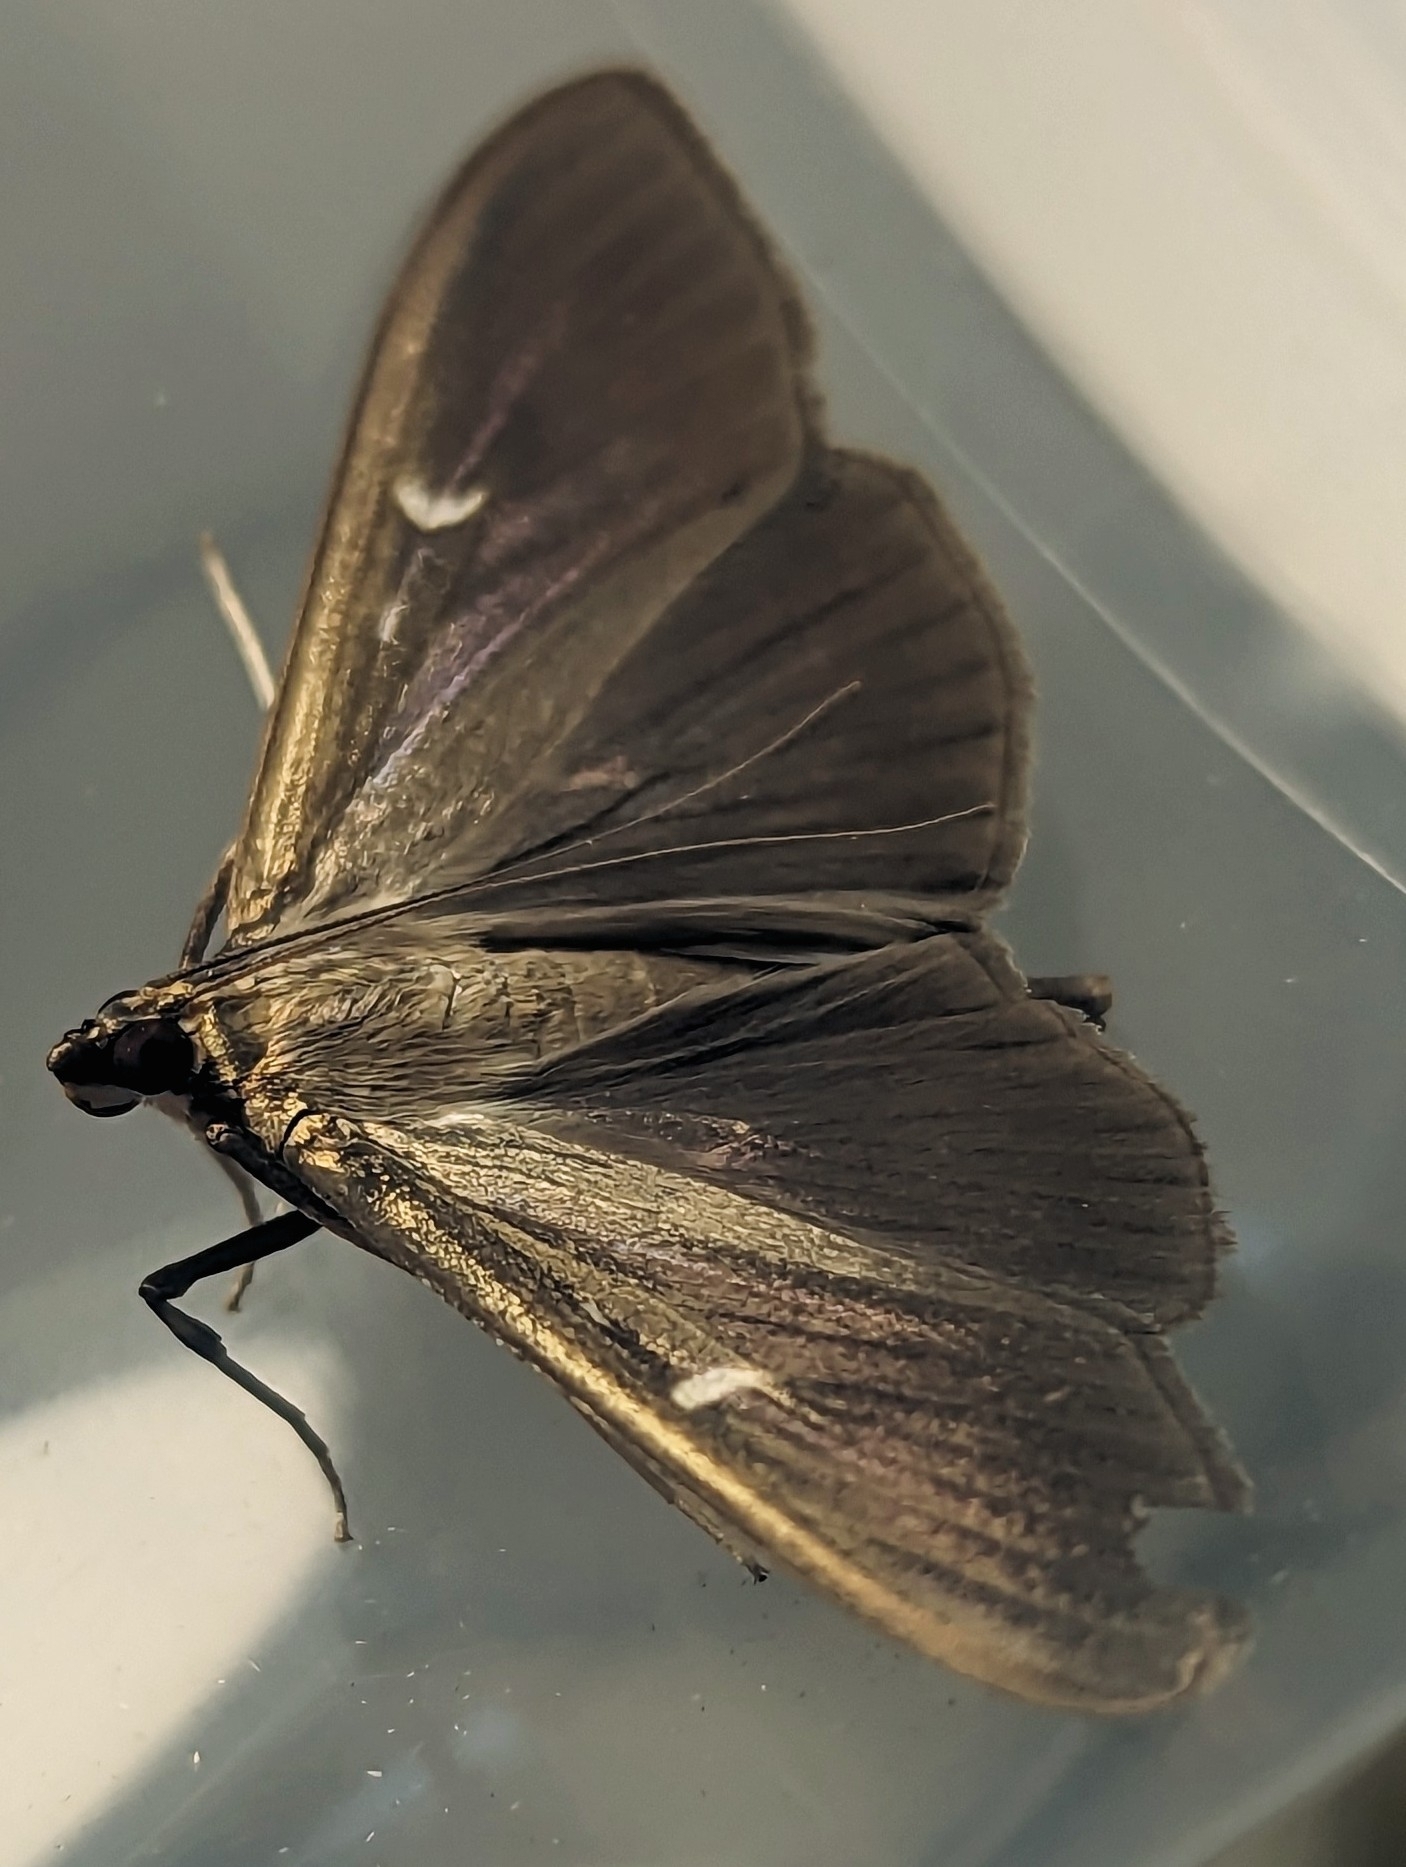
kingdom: Animalia
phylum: Arthropoda
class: Insecta
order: Lepidoptera
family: Crambidae
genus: Cydalima
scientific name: Cydalima perspectalis
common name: Box tree moth
